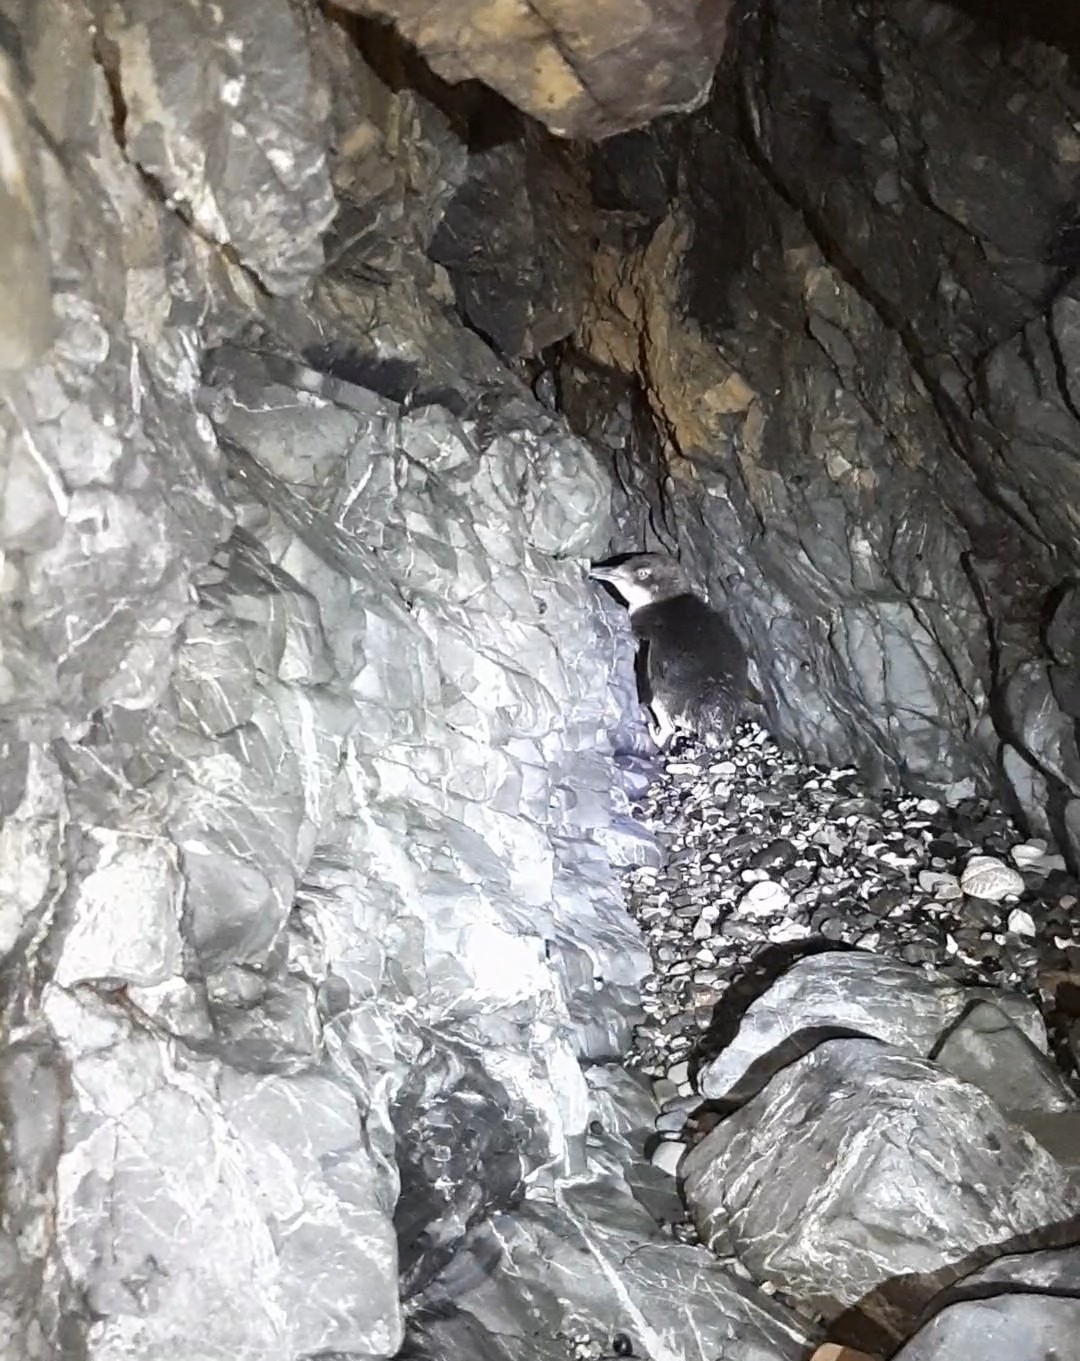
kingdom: Animalia
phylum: Chordata
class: Aves
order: Sphenisciformes
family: Spheniscidae
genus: Eudyptula
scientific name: Eudyptula minor
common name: Little penguin
